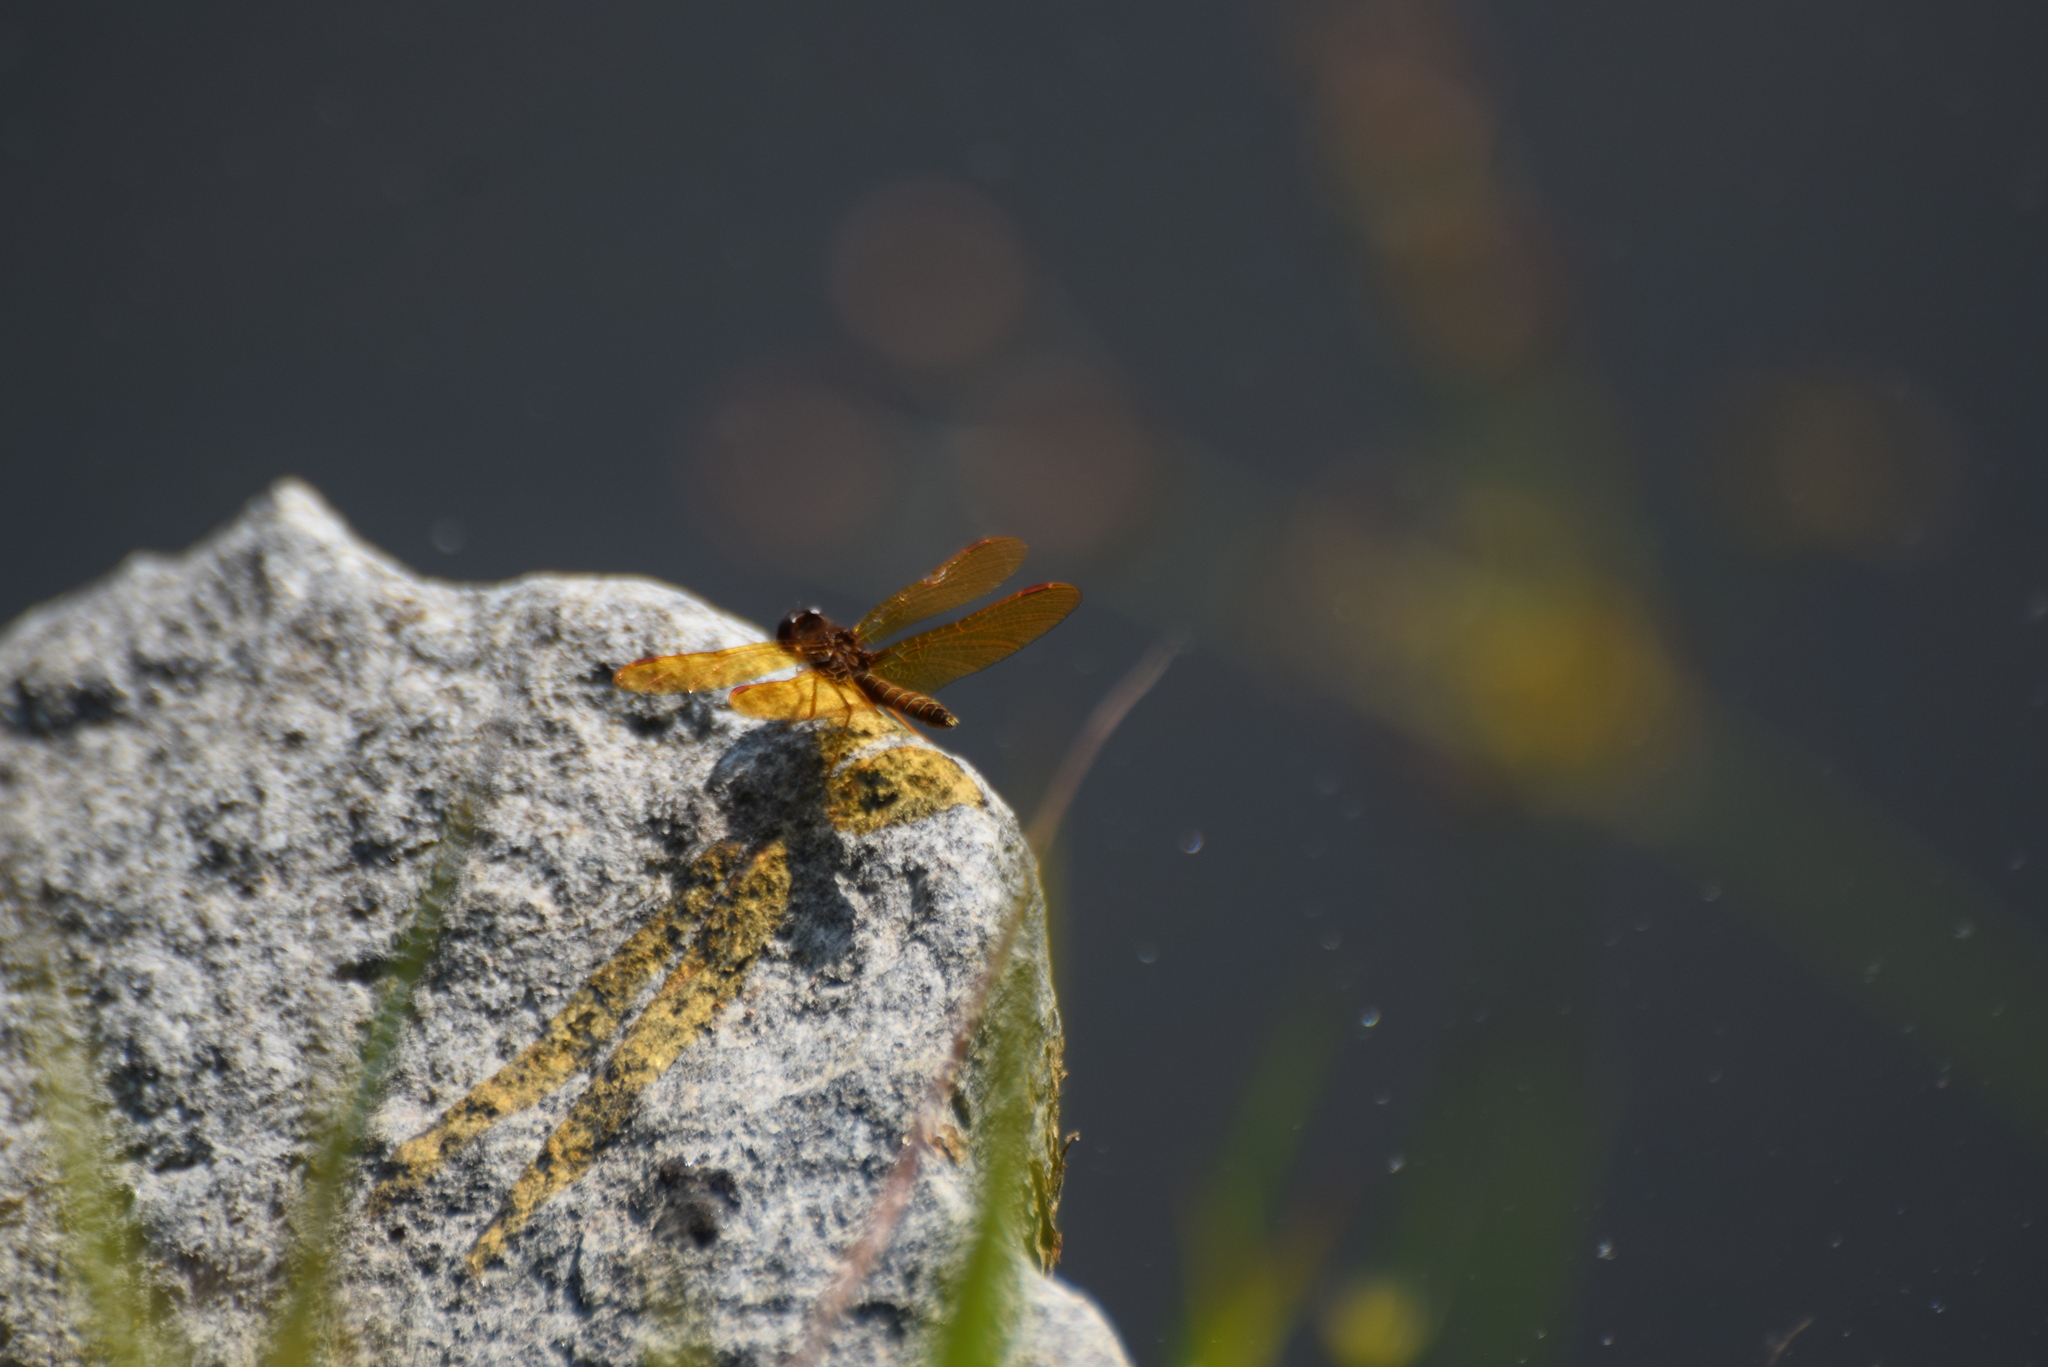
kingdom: Animalia
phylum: Arthropoda
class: Insecta
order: Odonata
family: Libellulidae
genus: Perithemis
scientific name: Perithemis tenera
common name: Eastern amberwing
